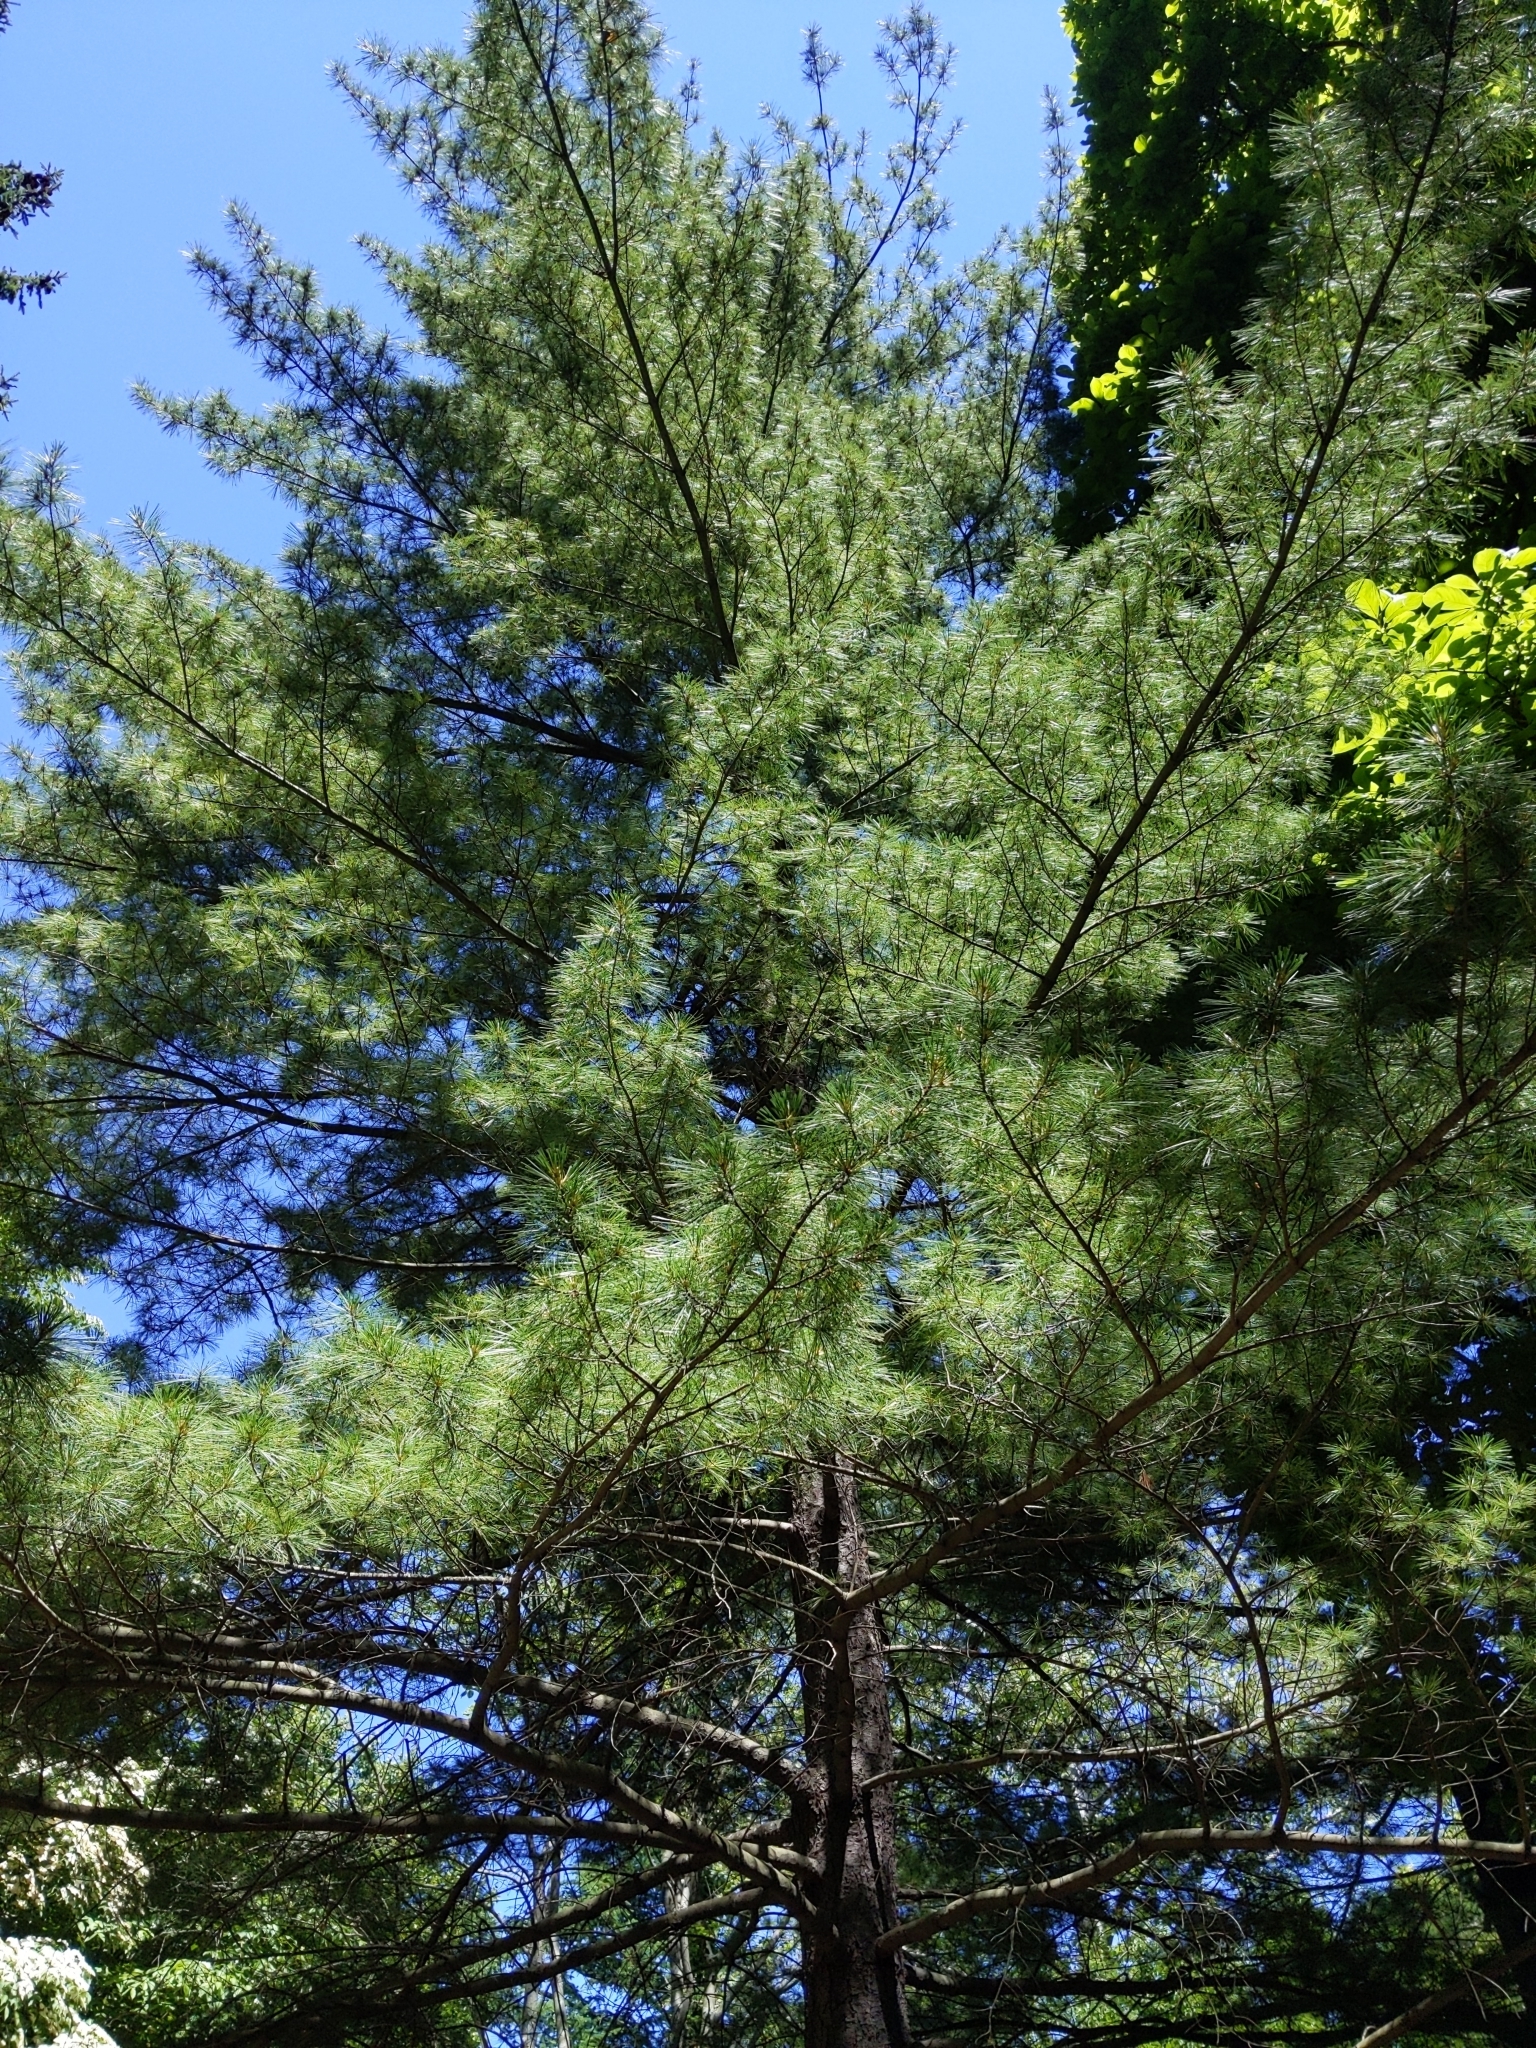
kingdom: Plantae
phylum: Tracheophyta
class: Pinopsida
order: Pinales
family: Pinaceae
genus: Pinus
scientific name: Pinus strobus
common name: Weymouth pine
